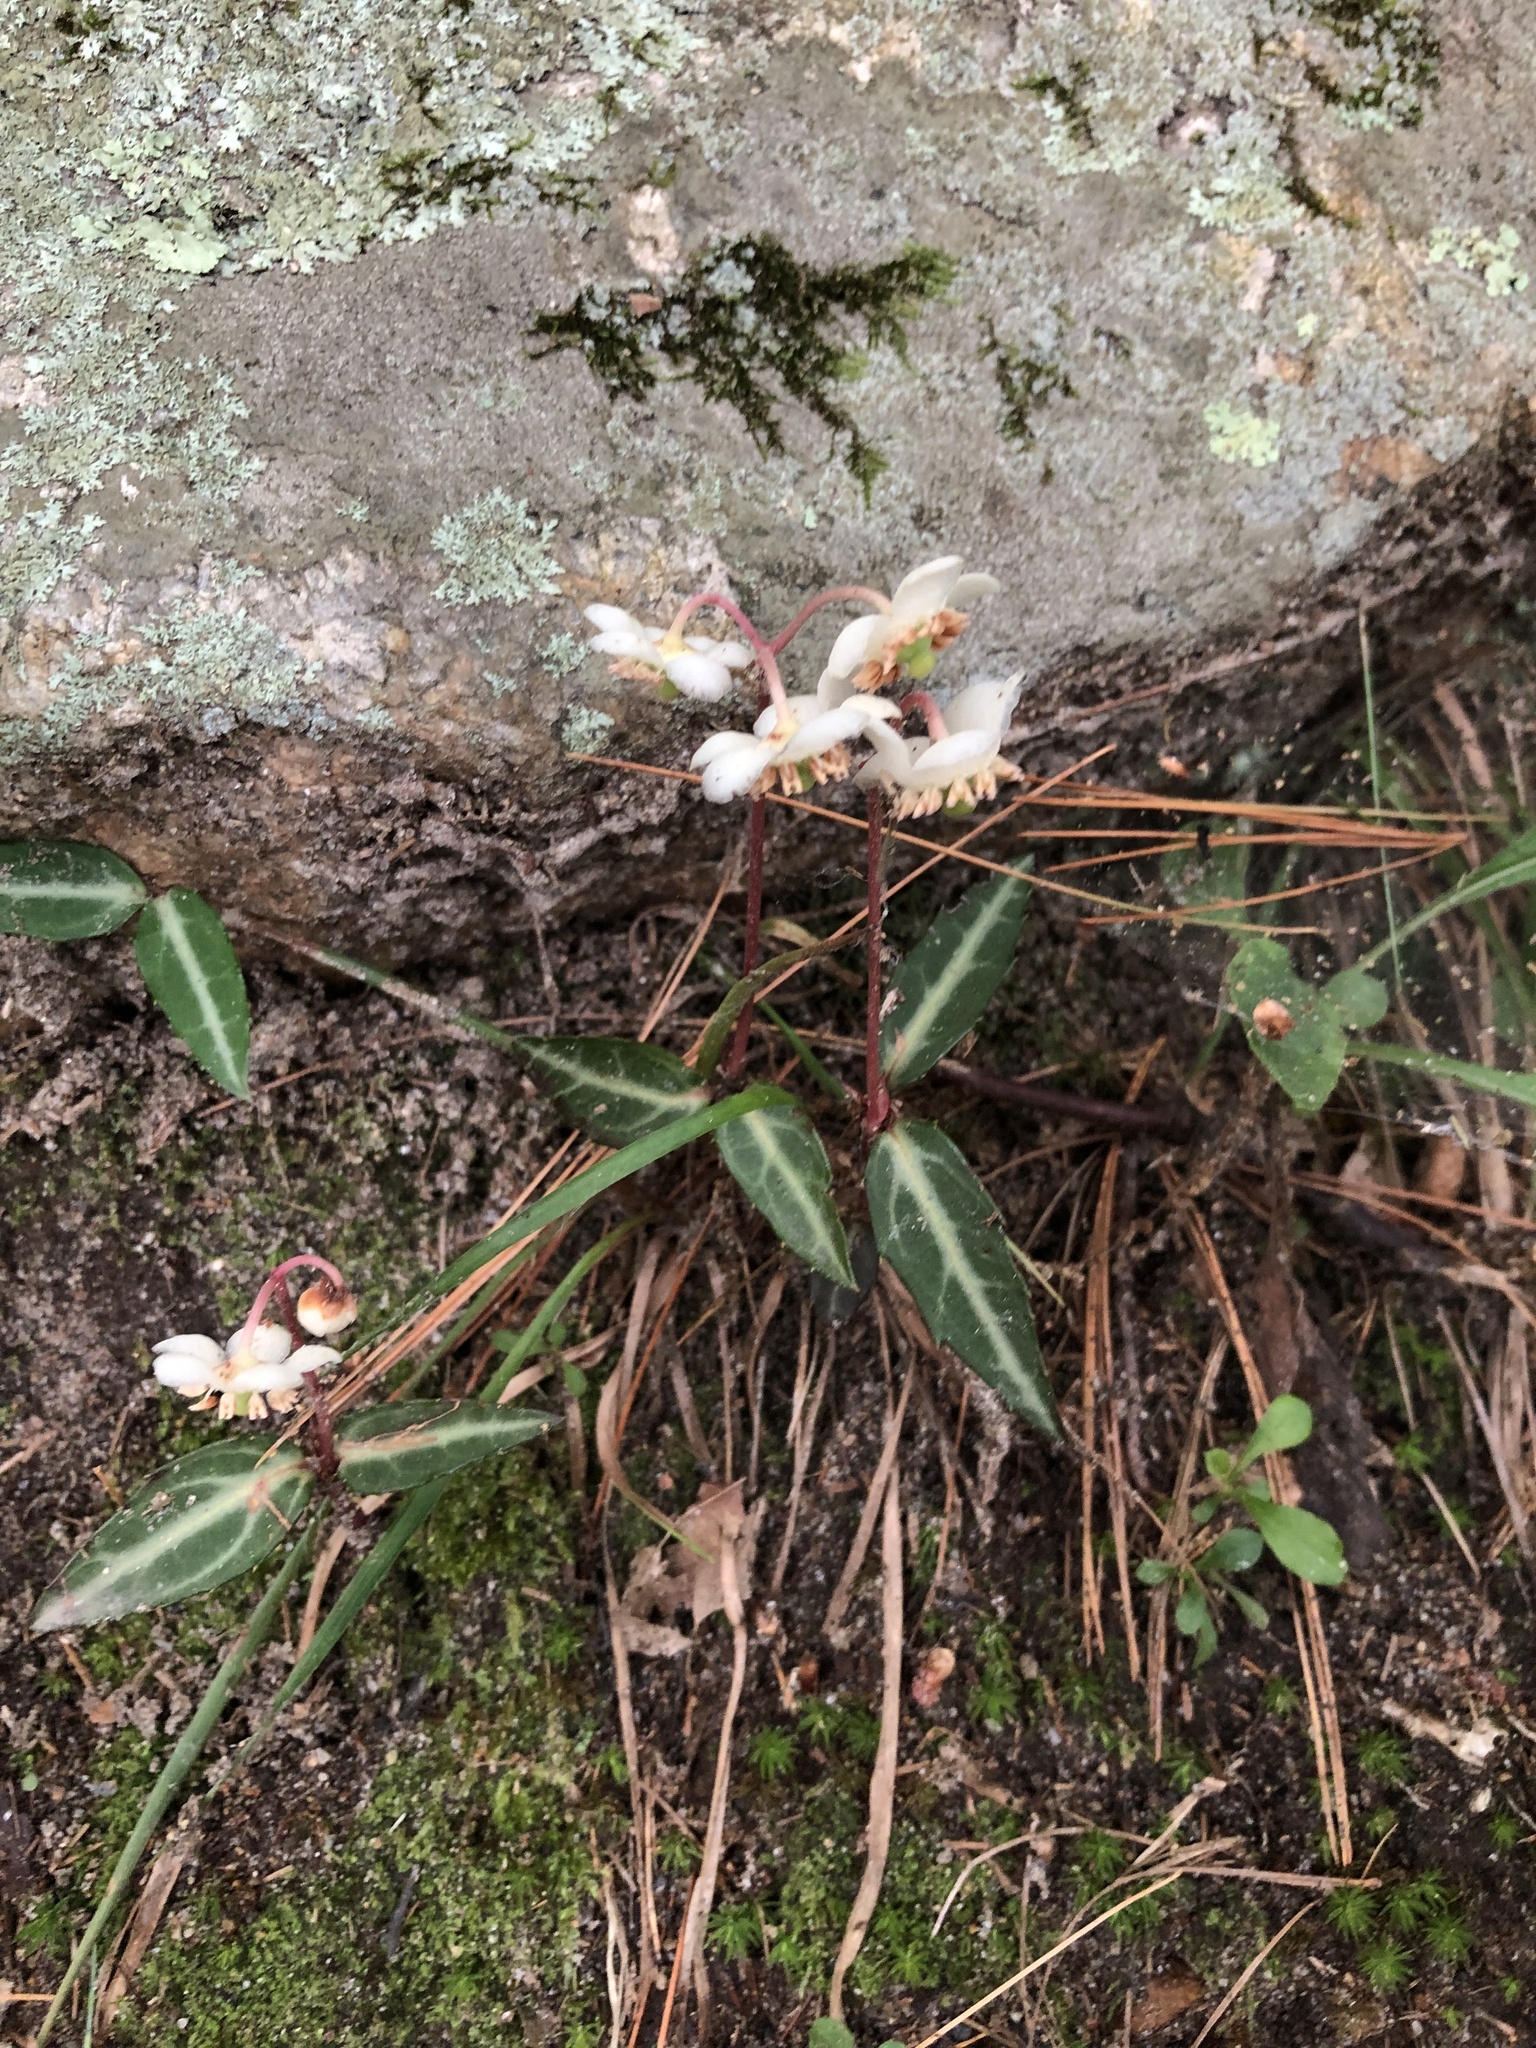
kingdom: Plantae
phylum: Tracheophyta
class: Magnoliopsida
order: Ericales
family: Ericaceae
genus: Chimaphila
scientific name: Chimaphila maculata
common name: Spotted pipsissewa
